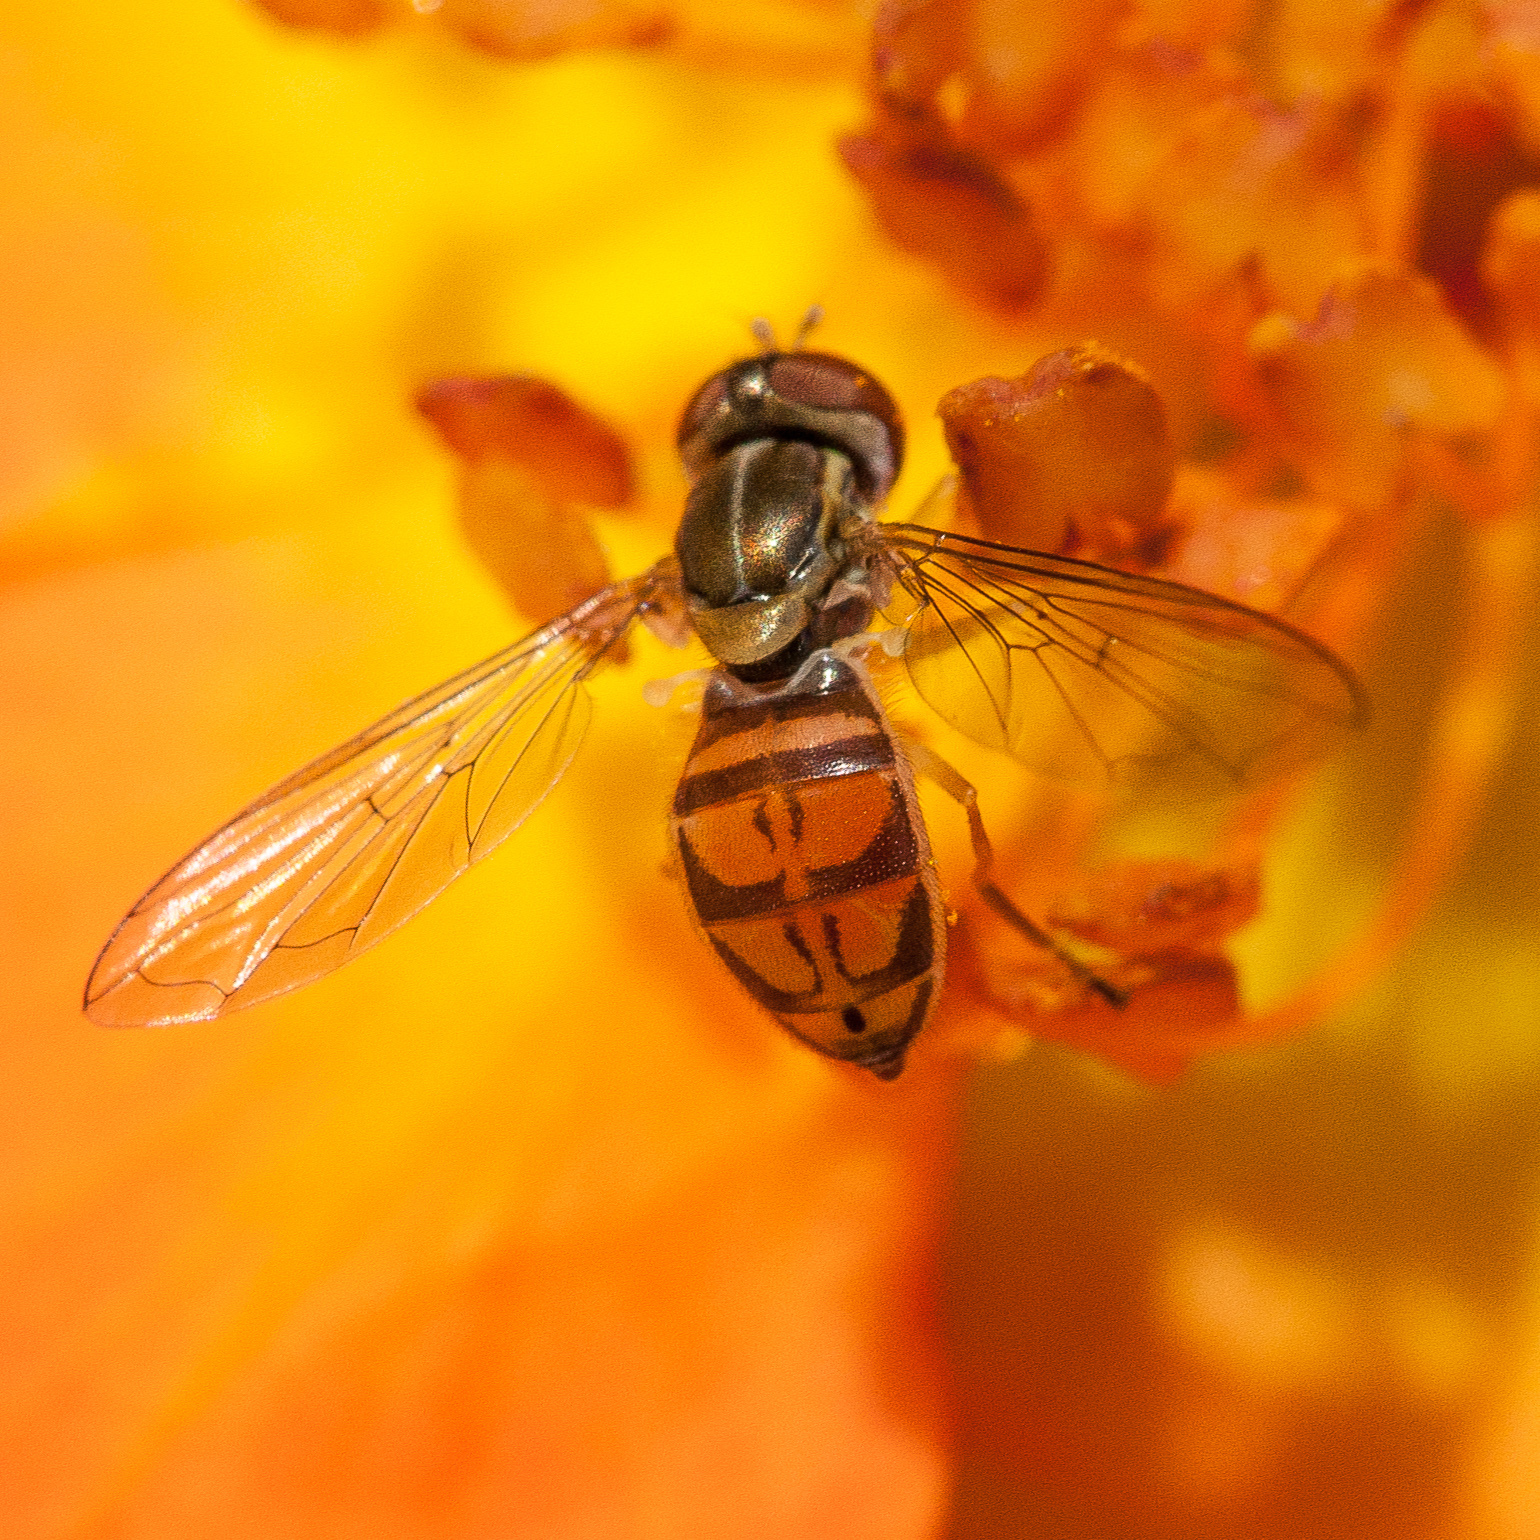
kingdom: Animalia
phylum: Arthropoda
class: Insecta
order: Diptera
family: Syrphidae
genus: Toxomerus
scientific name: Toxomerus marginatus
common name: Syrphid fly
